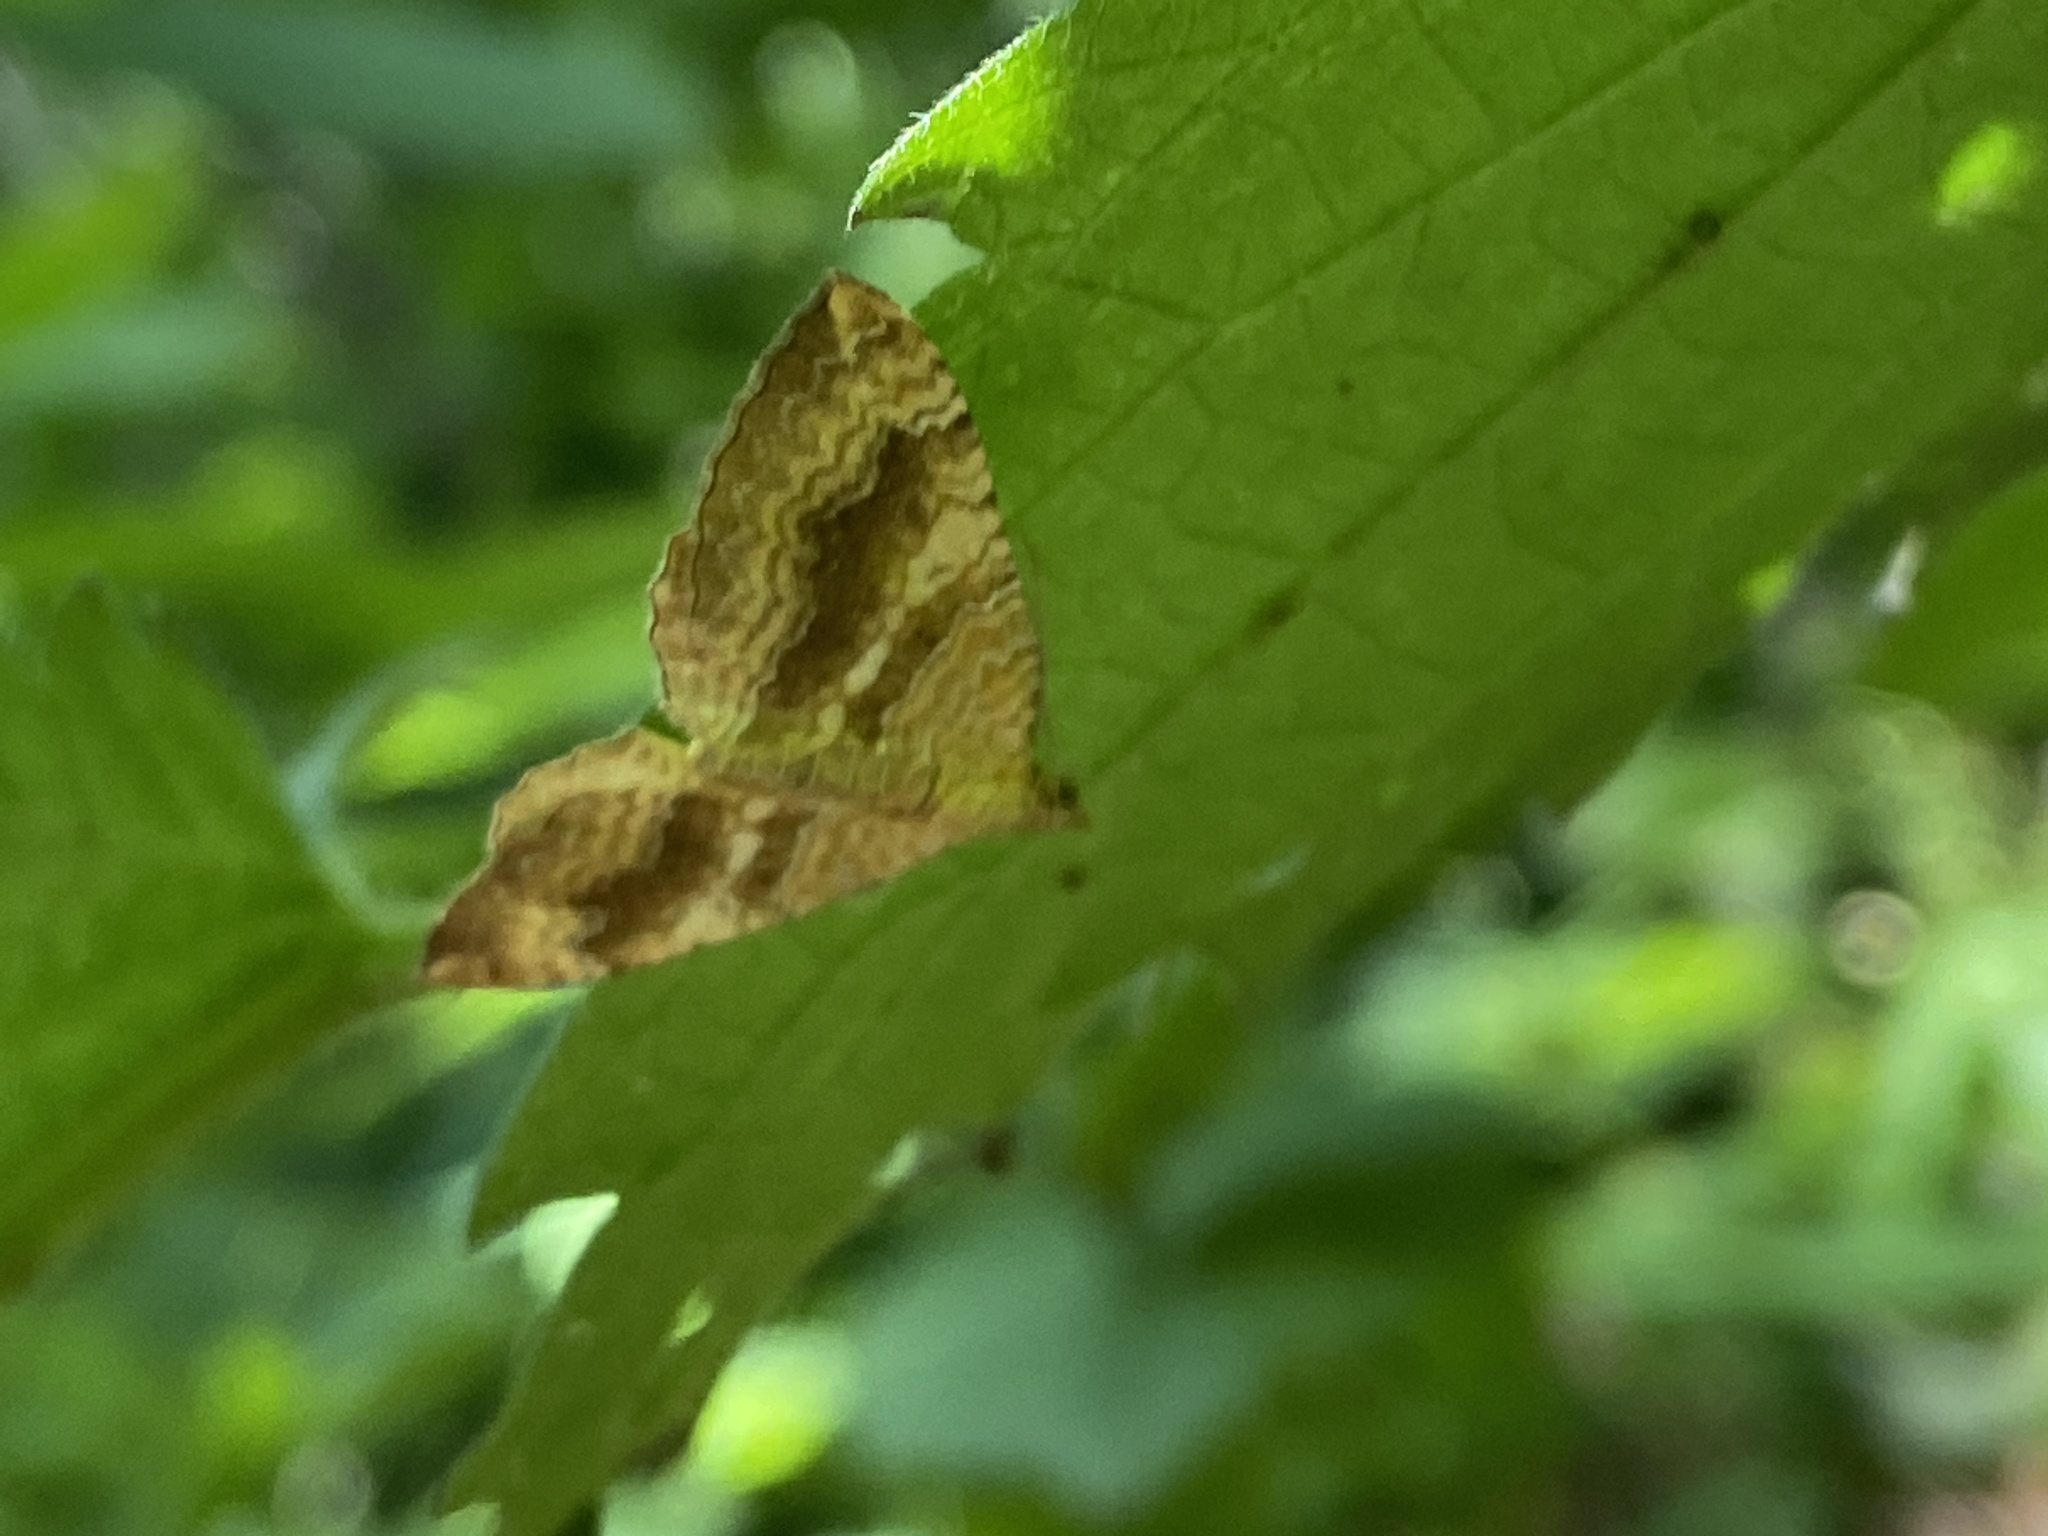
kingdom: Animalia
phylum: Arthropoda
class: Insecta
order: Lepidoptera
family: Geometridae
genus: Camptogramma
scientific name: Camptogramma bilineata
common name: Yellow shell
